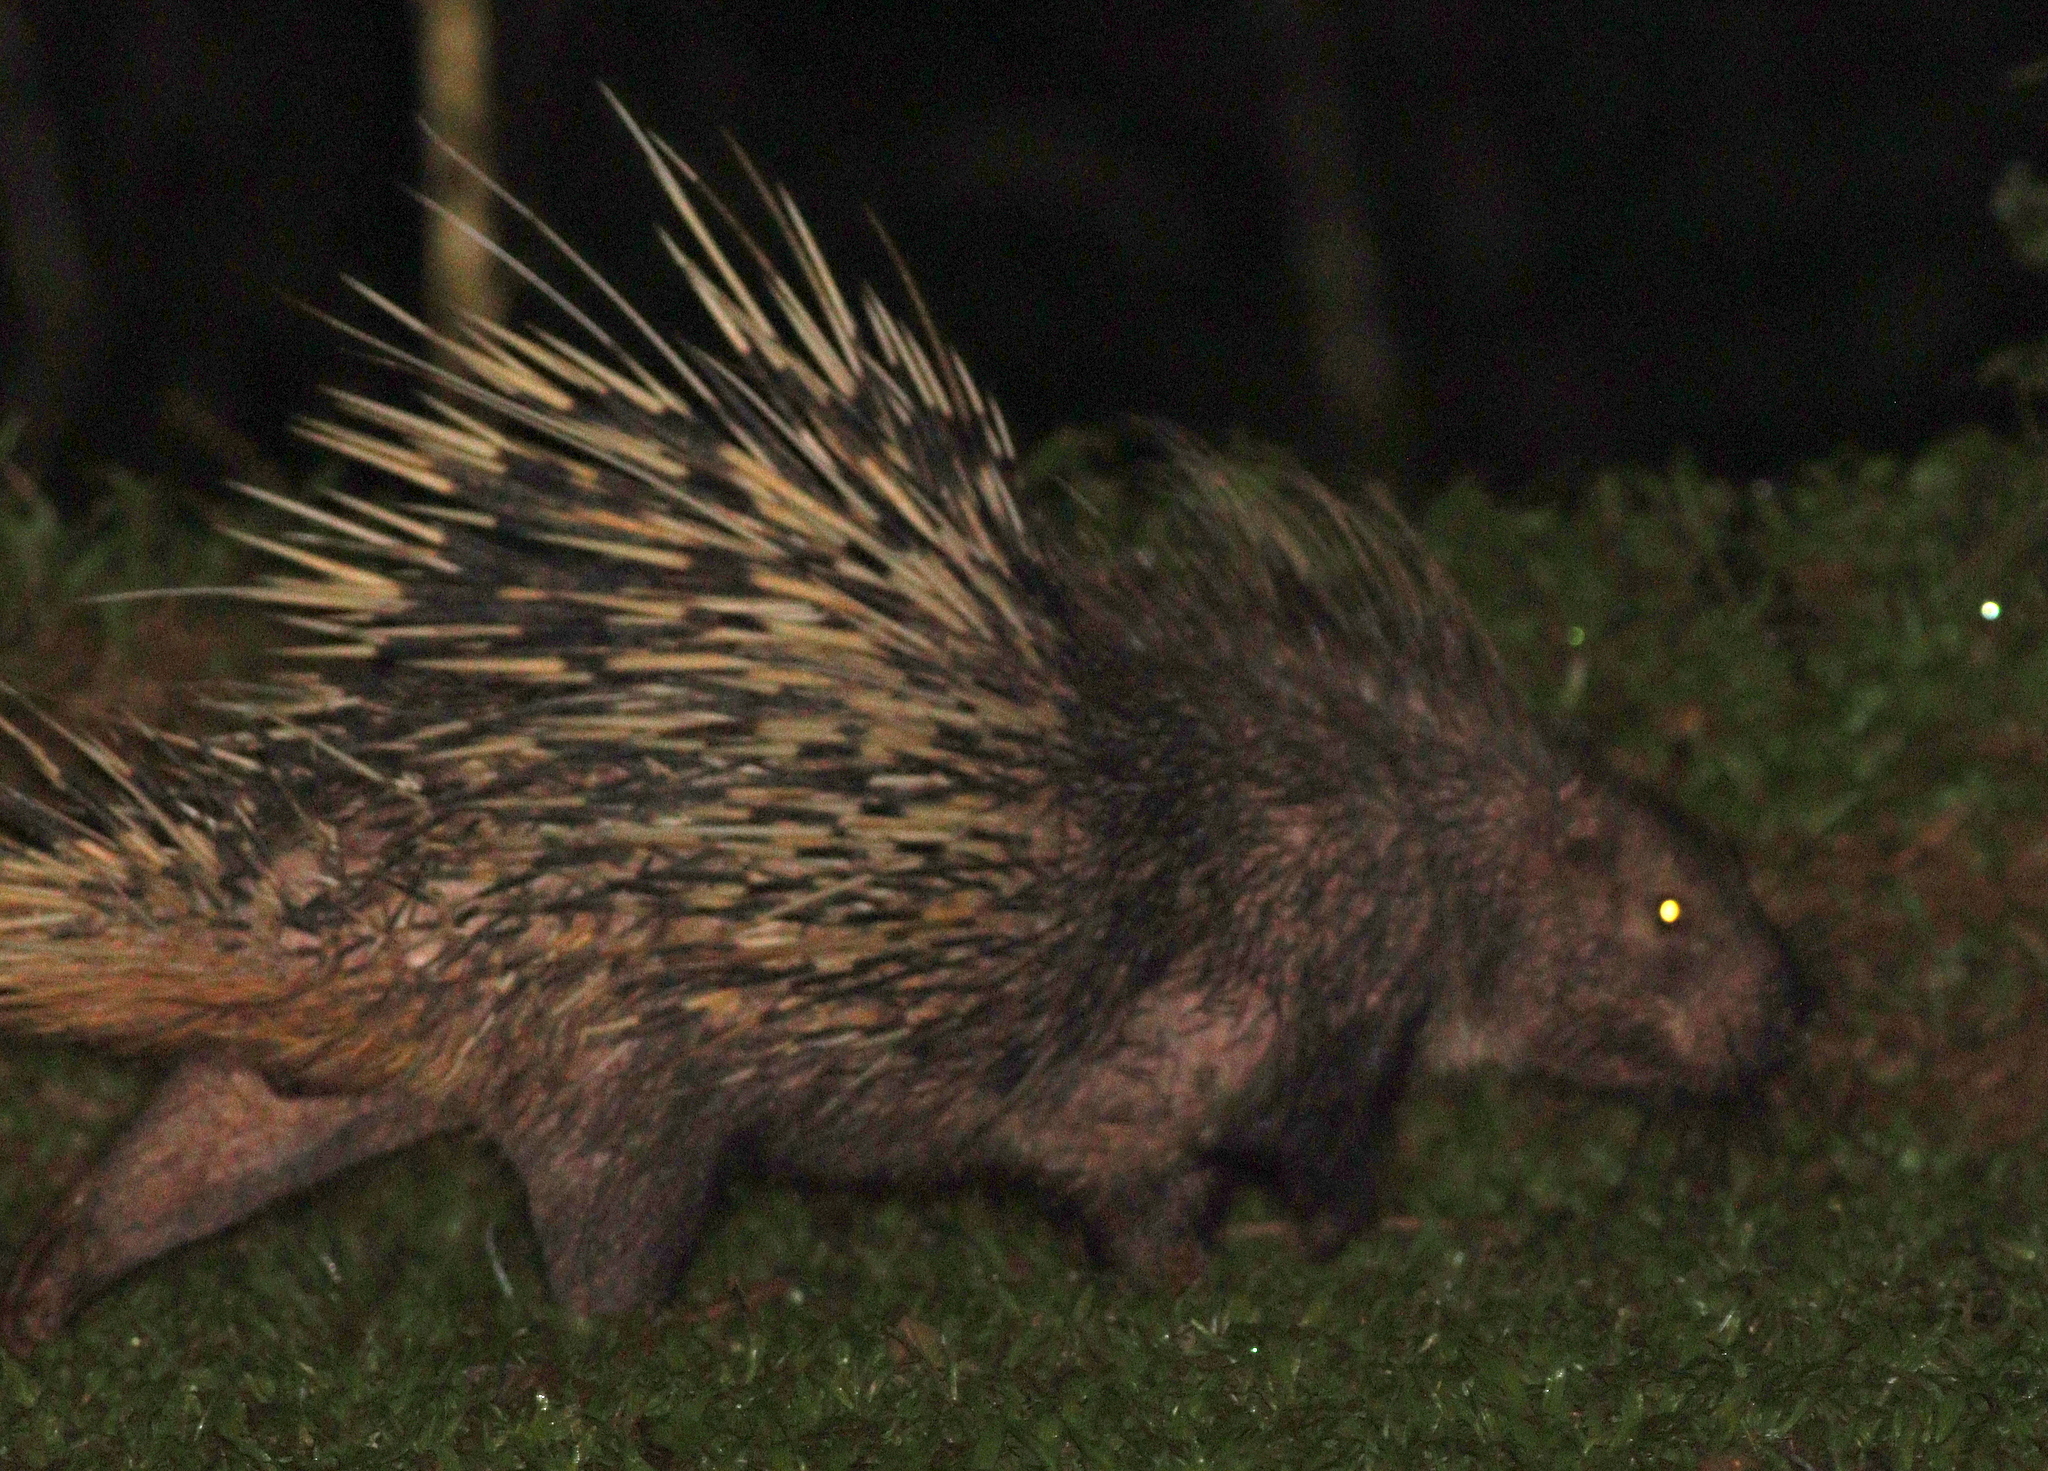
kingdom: Animalia
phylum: Chordata
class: Mammalia
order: Rodentia
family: Hystricidae
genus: Hystrix
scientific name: Hystrix brachyura
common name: Malayan porcupine
